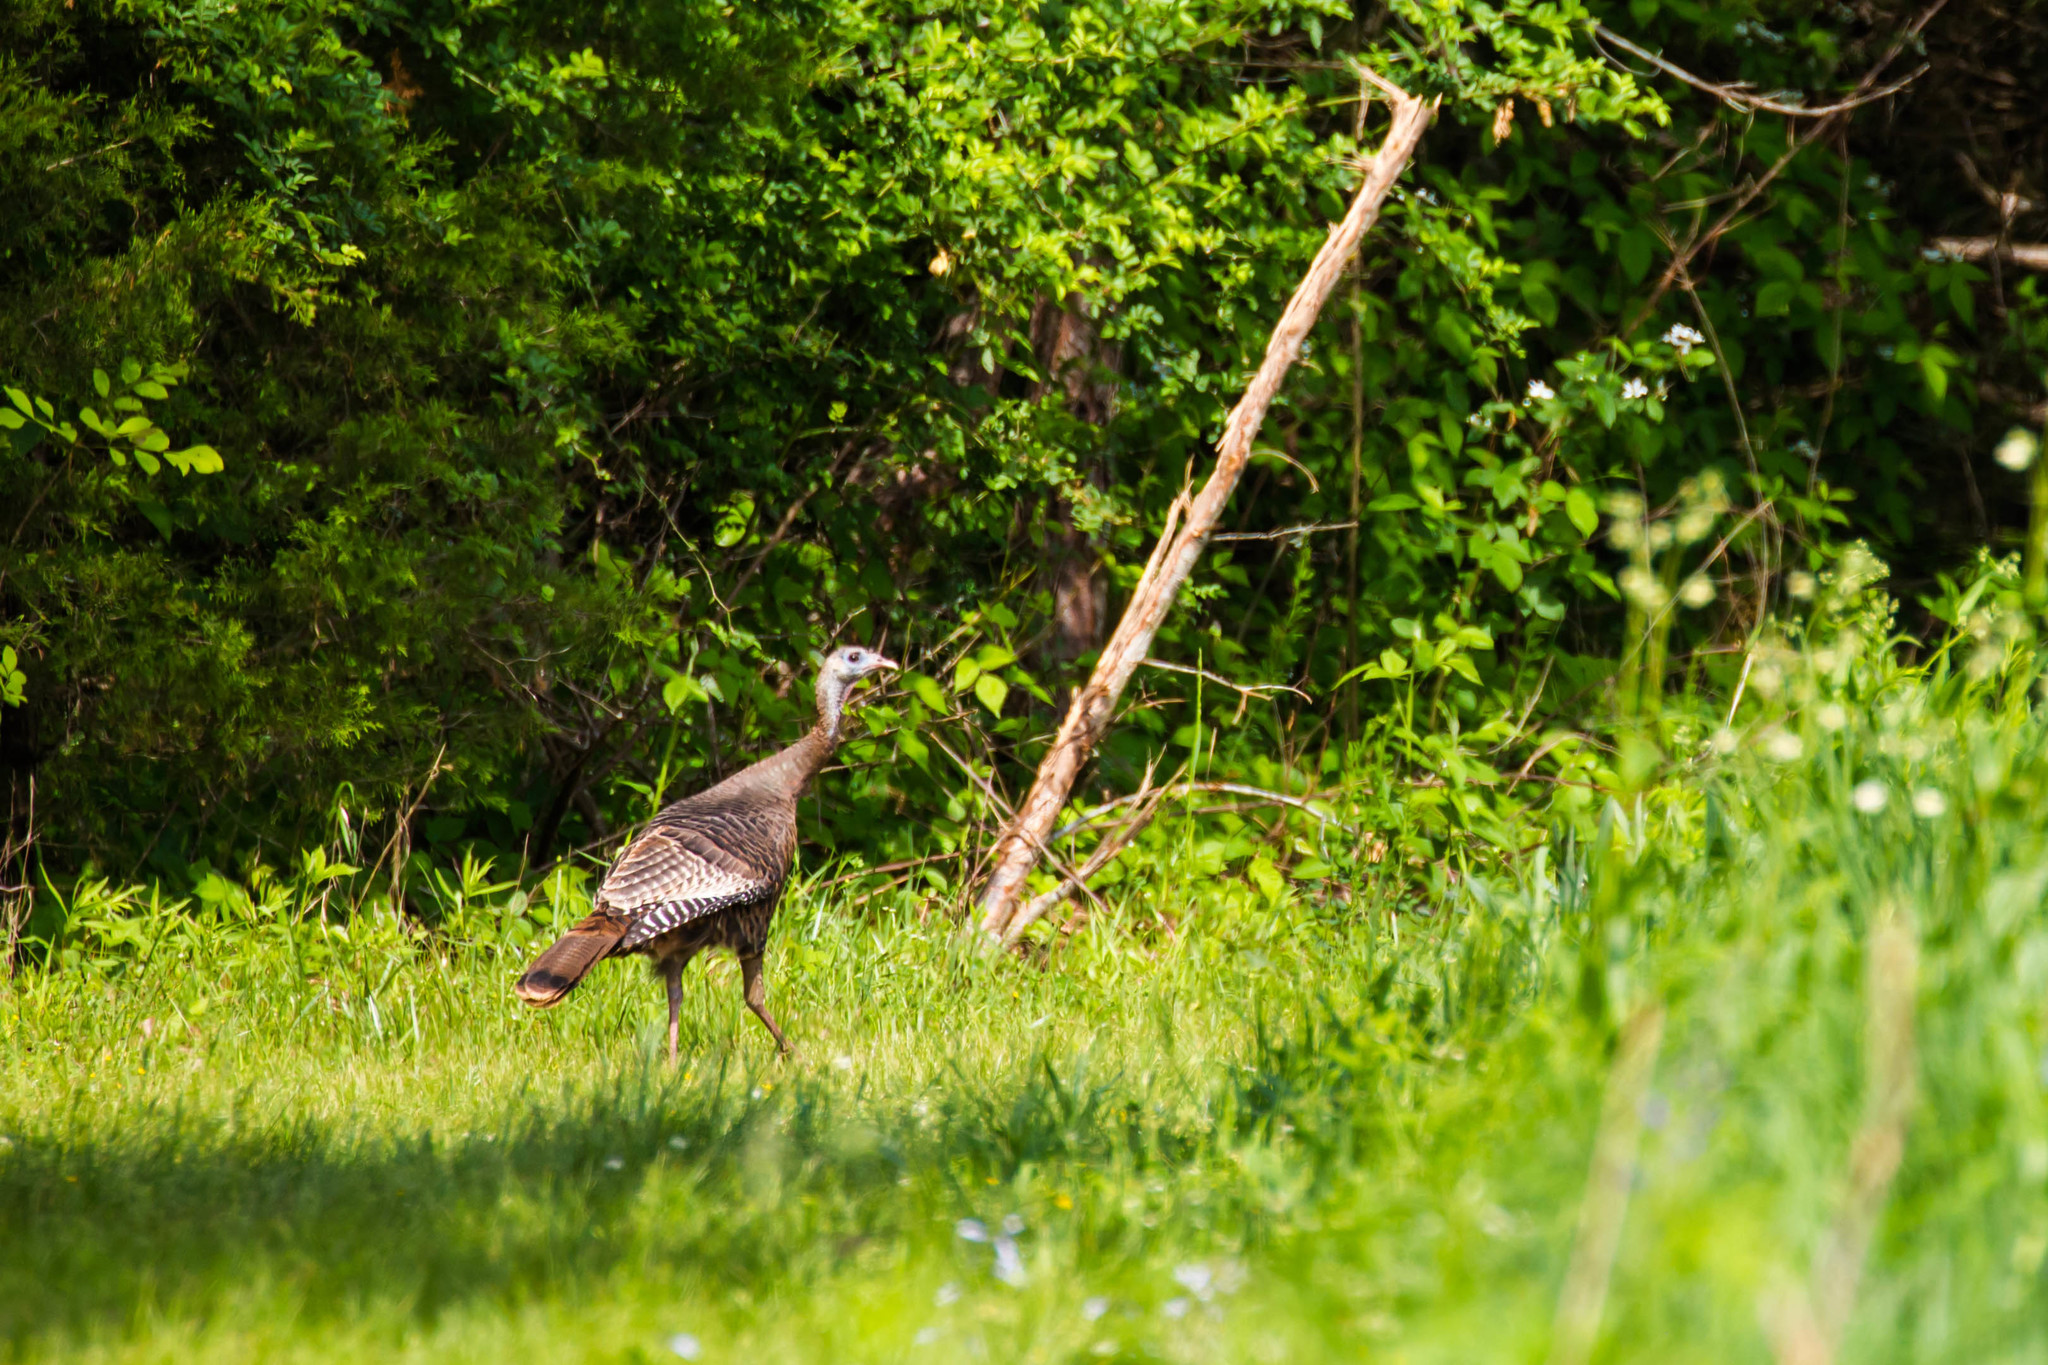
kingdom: Animalia
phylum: Chordata
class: Aves
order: Galliformes
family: Phasianidae
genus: Meleagris
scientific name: Meleagris gallopavo
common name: Wild turkey
